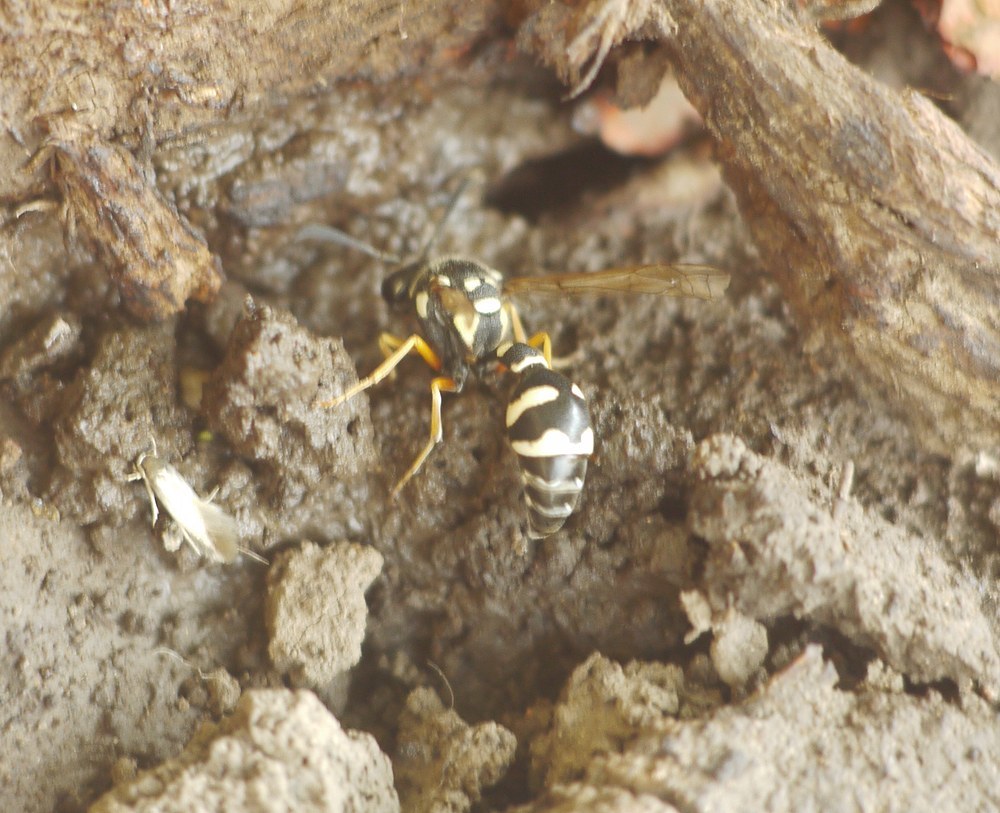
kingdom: Animalia
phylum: Arthropoda
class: Insecta
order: Hymenoptera
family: Vespidae
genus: Eumenes
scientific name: Eumenes sareptanus
